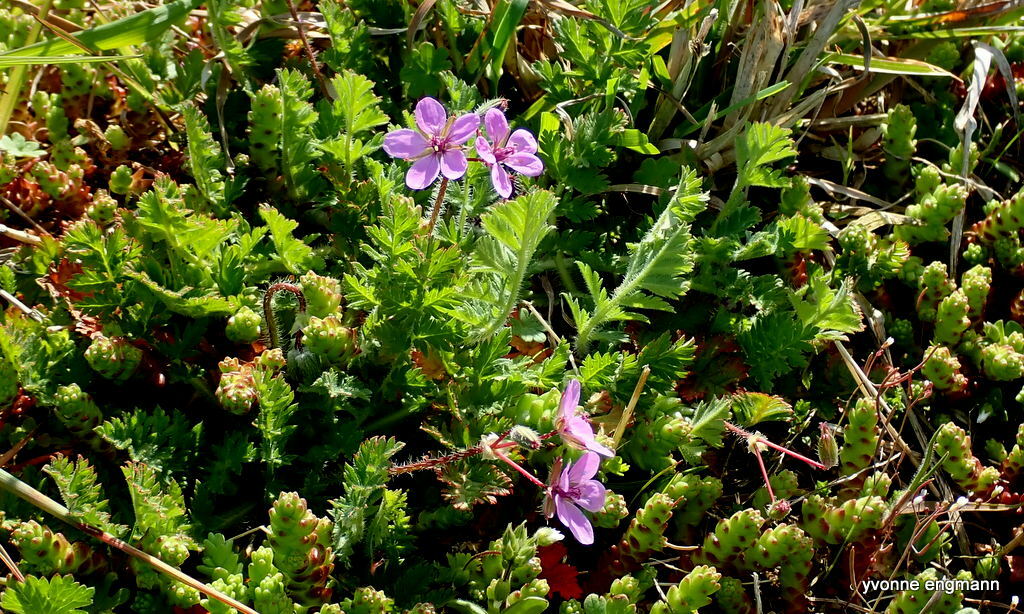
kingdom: Plantae
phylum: Tracheophyta
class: Magnoliopsida
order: Geraniales
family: Geraniaceae
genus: Erodium
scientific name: Erodium cicutarium
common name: Common stork's-bill
